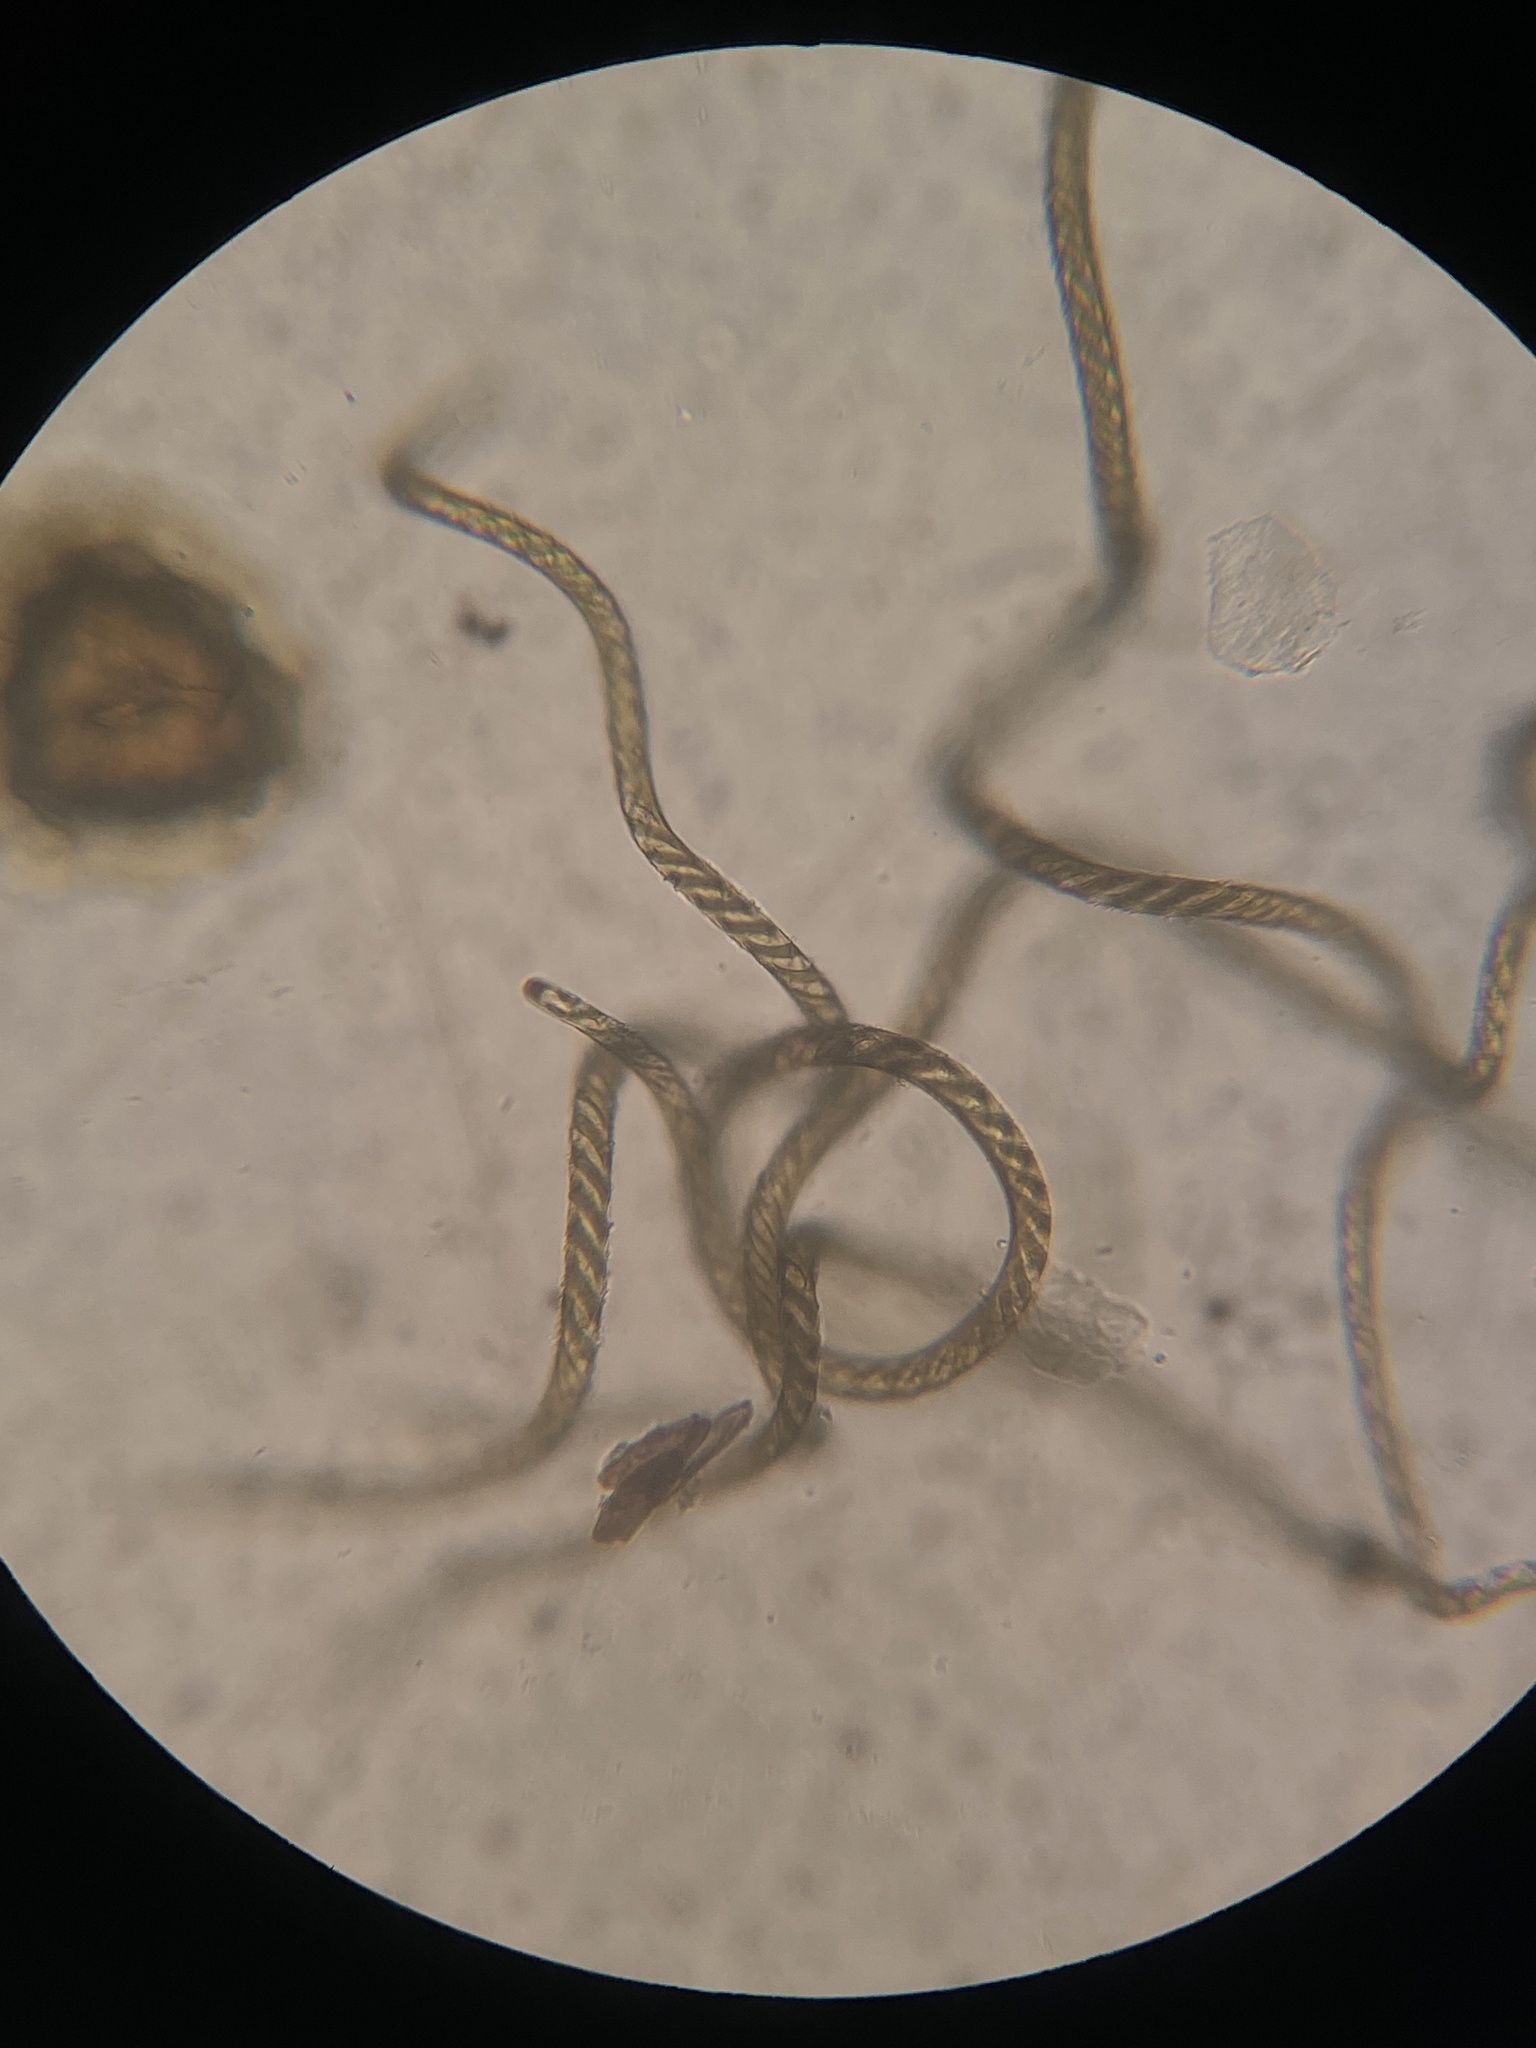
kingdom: Plantae
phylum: Marchantiophyta
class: Marchantiopsida
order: Marchantiales
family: Aytoniaceae
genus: Reboulia
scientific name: Reboulia hemisphaerica
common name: Purple-margined liverwort
